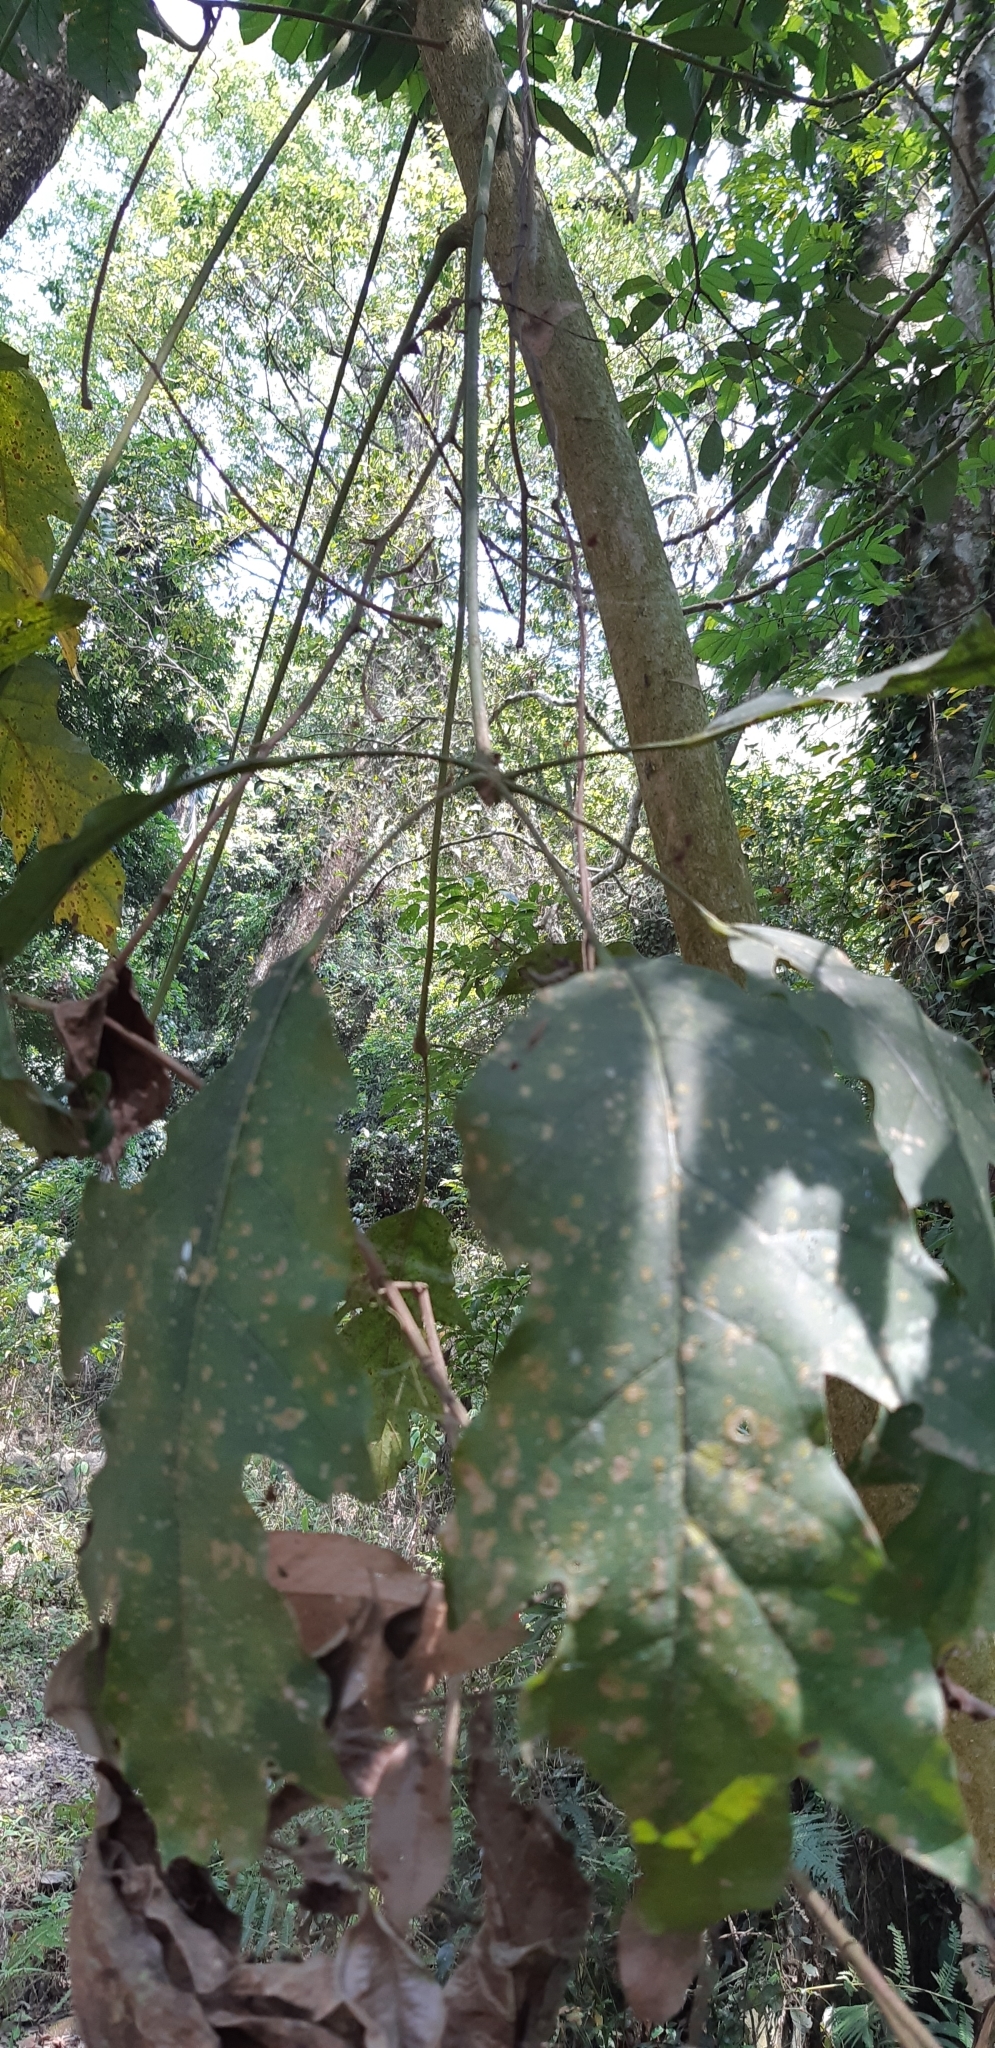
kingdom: Plantae
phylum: Tracheophyta
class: Magnoliopsida
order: Apiales
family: Araliaceae
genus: Heptapleurum
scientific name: Heptapleurum heptaphyllum
